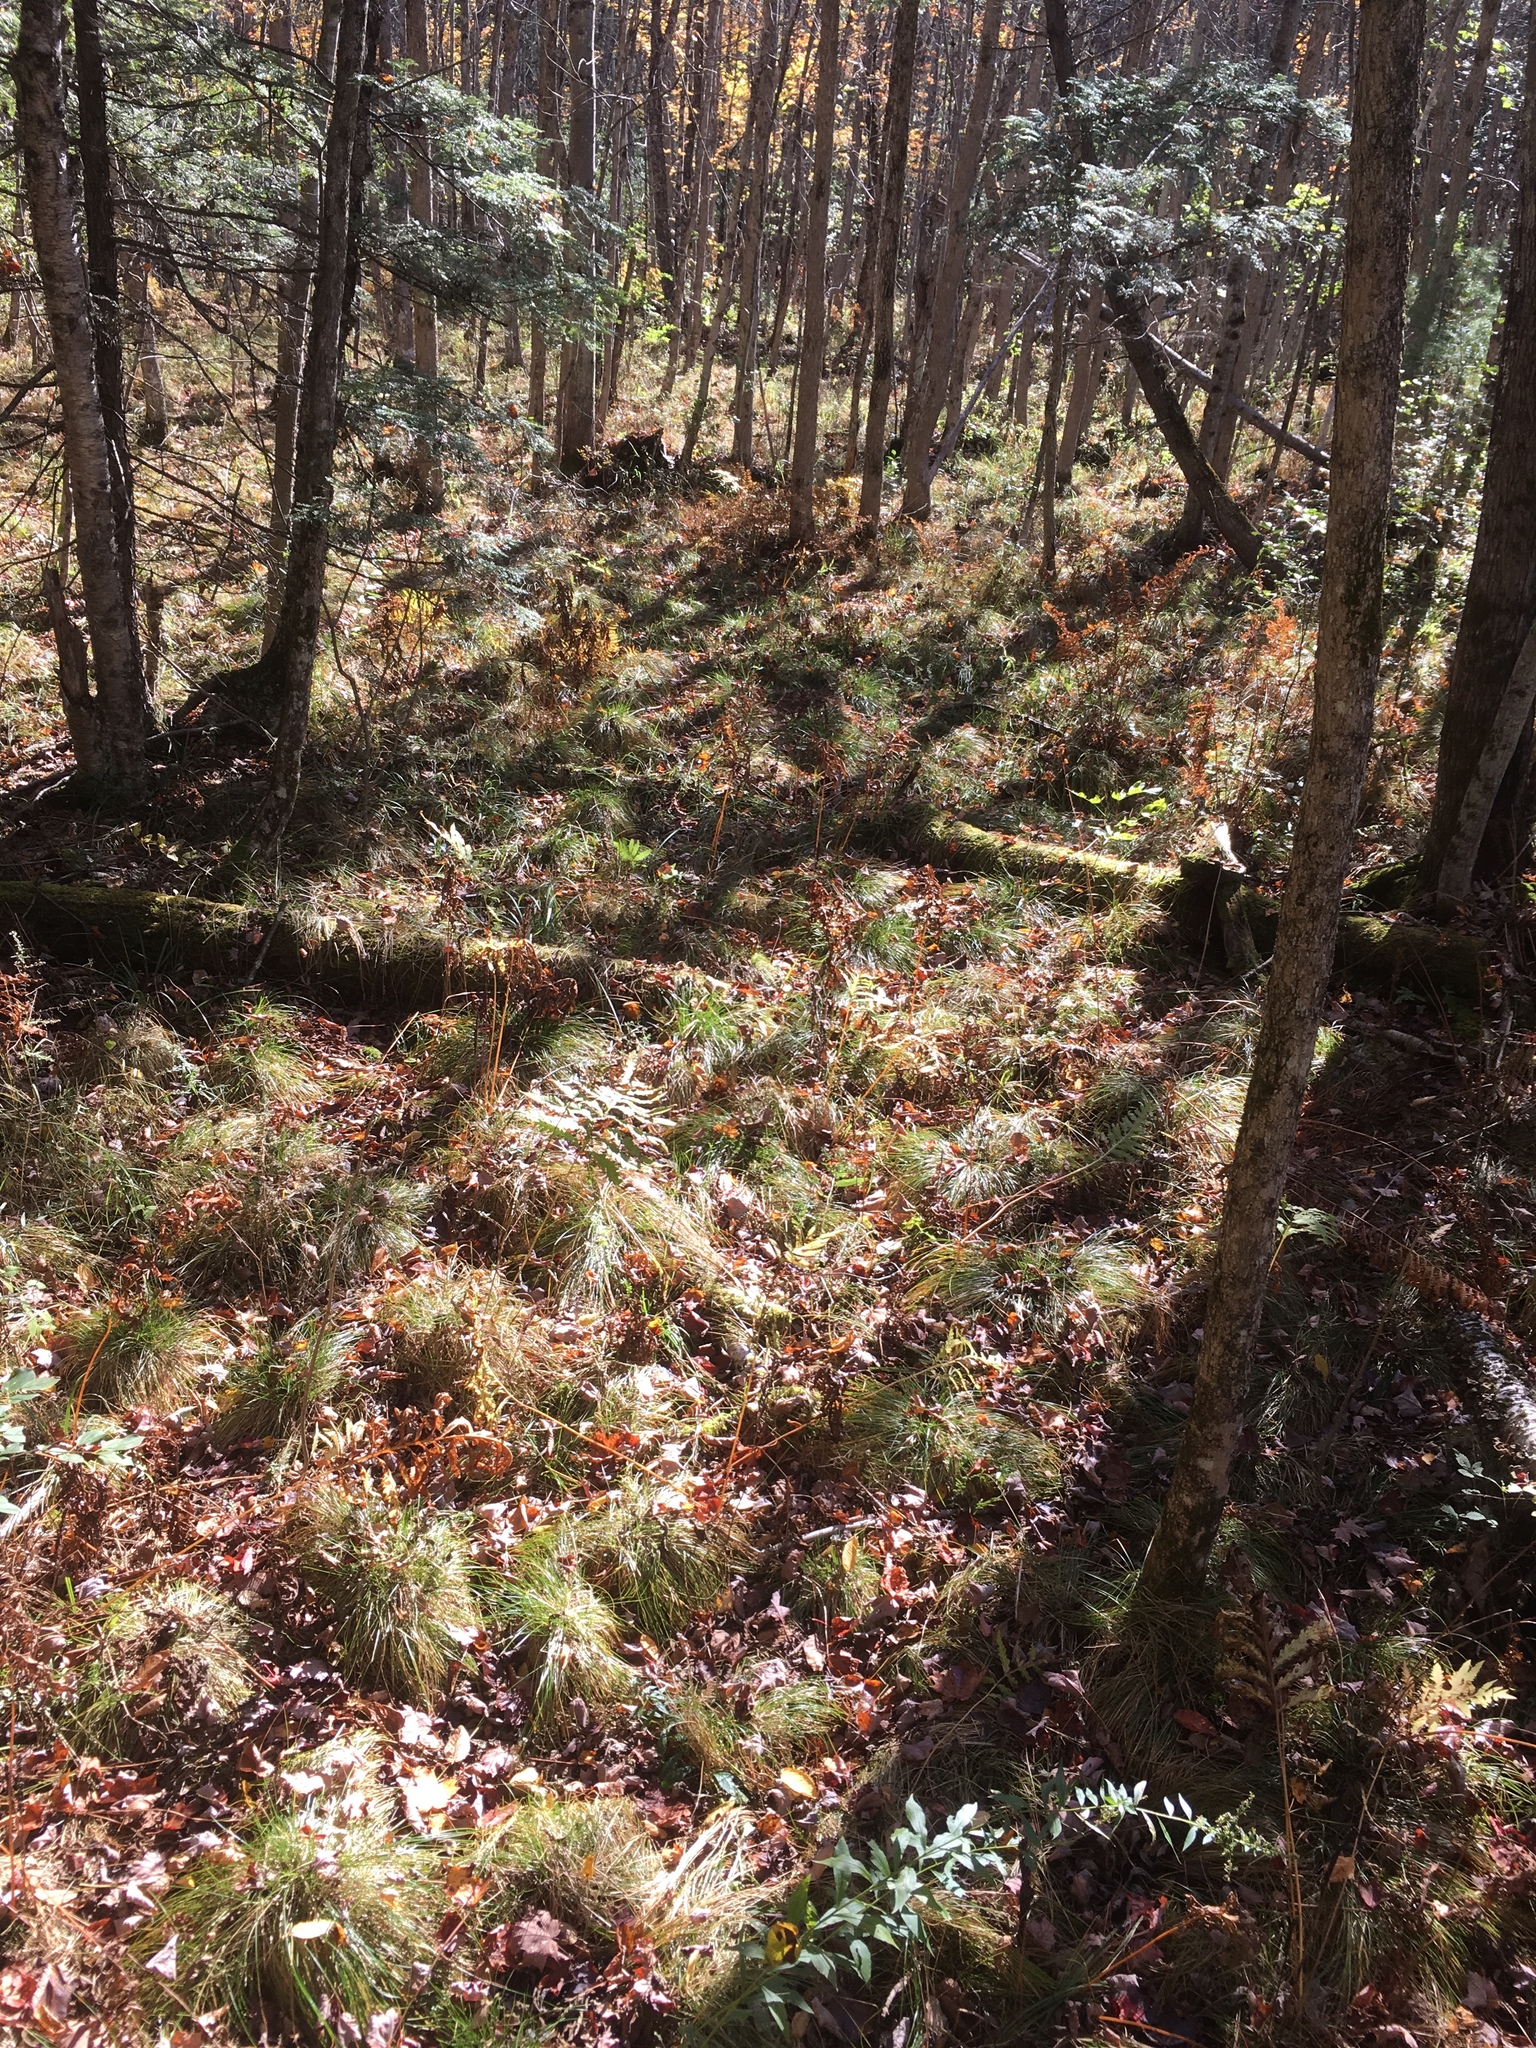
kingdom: Plantae
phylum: Tracheophyta
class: Liliopsida
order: Poales
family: Cyperaceae
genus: Carex
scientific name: Carex bromoides
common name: Brome hummock sedge
